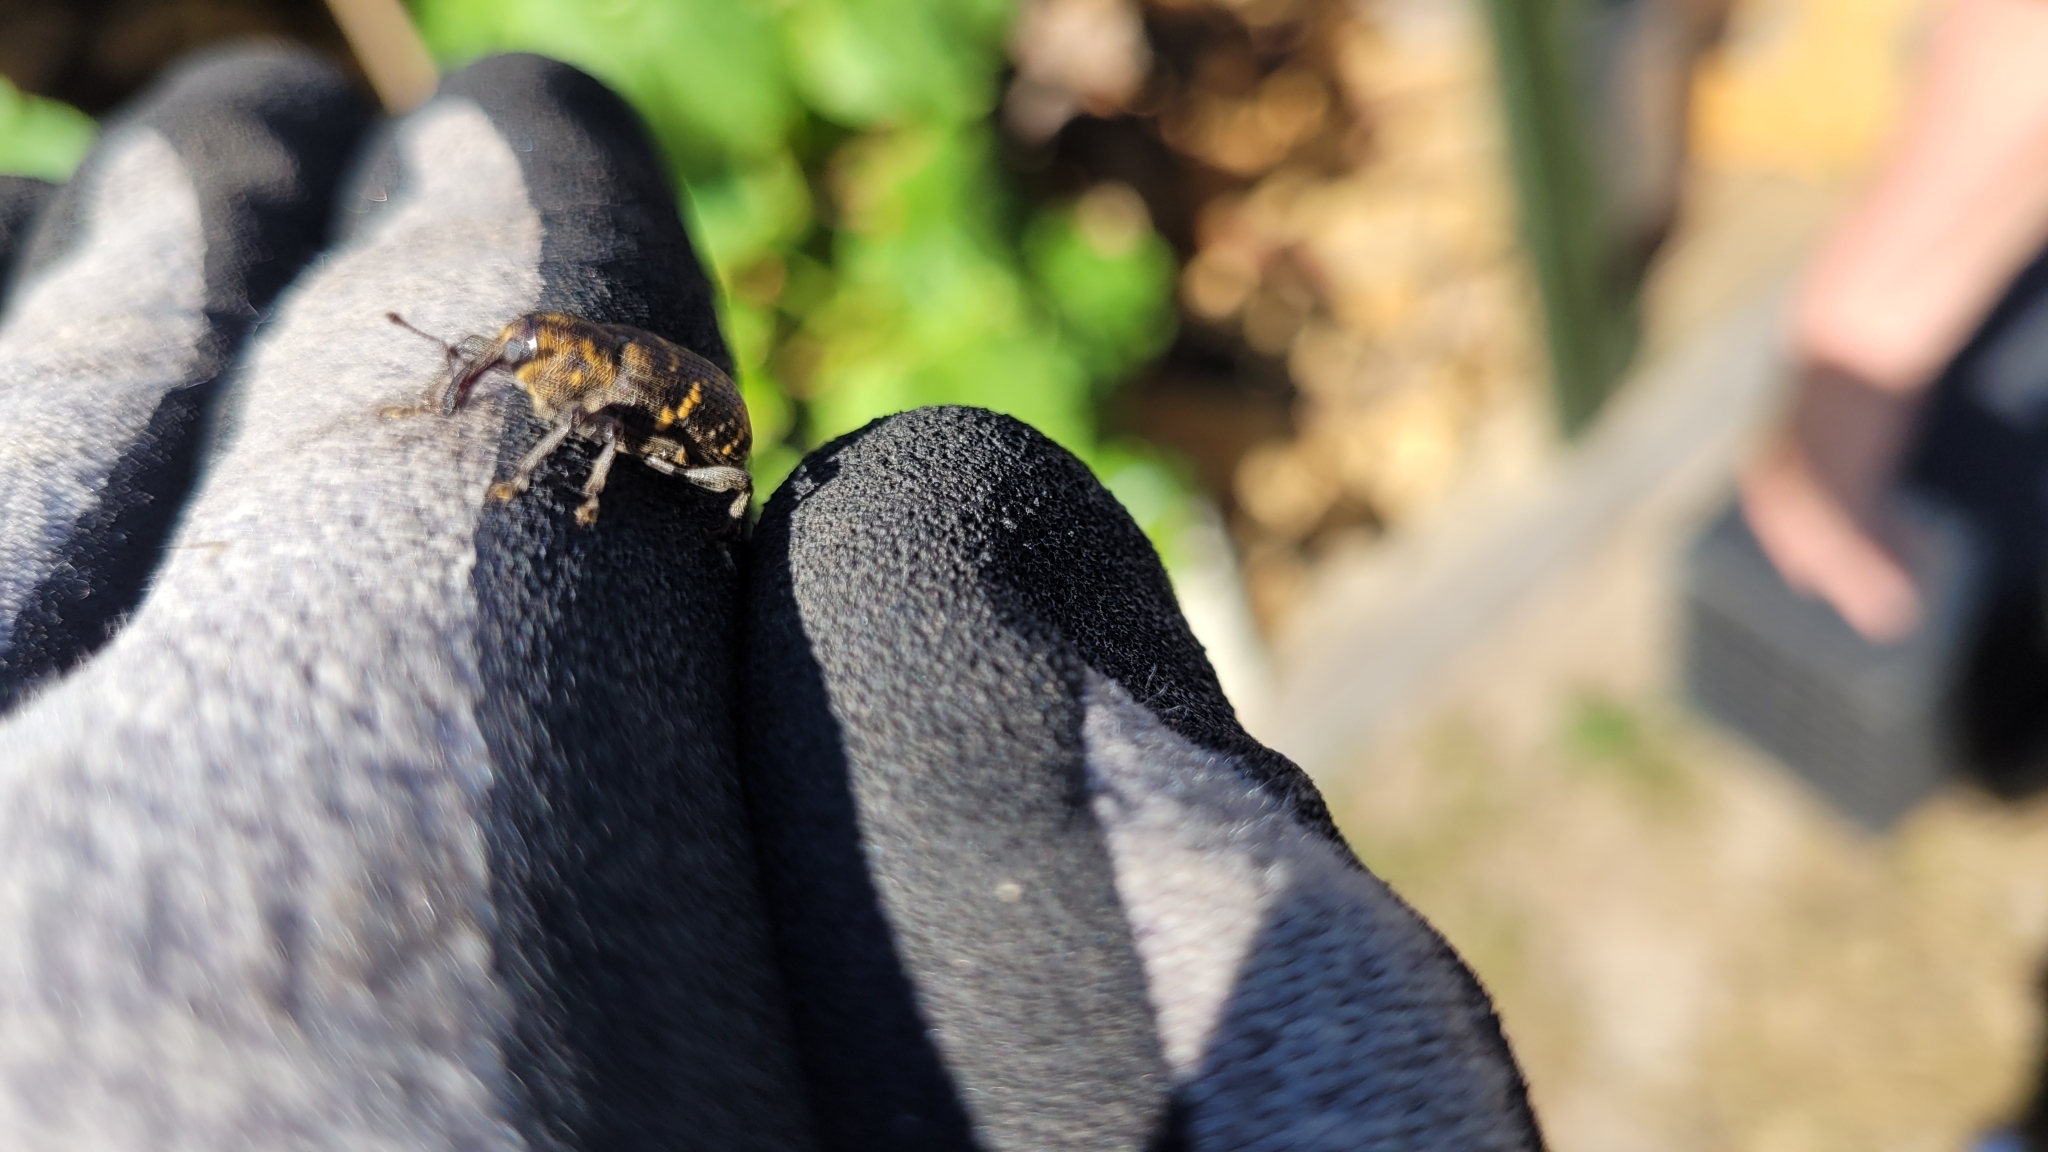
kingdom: Animalia
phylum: Arthropoda
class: Insecta
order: Coleoptera
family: Curculionidae
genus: Hylobius
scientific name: Hylobius abietis
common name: Large pine weevil
